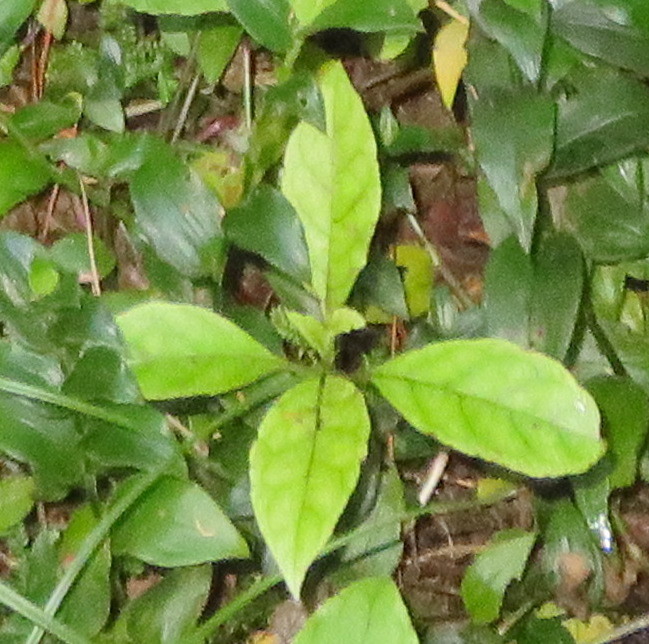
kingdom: Plantae
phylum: Tracheophyta
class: Magnoliopsida
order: Gentianales
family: Rubiaceae
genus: Coprosma
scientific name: Coprosma autumnalis
